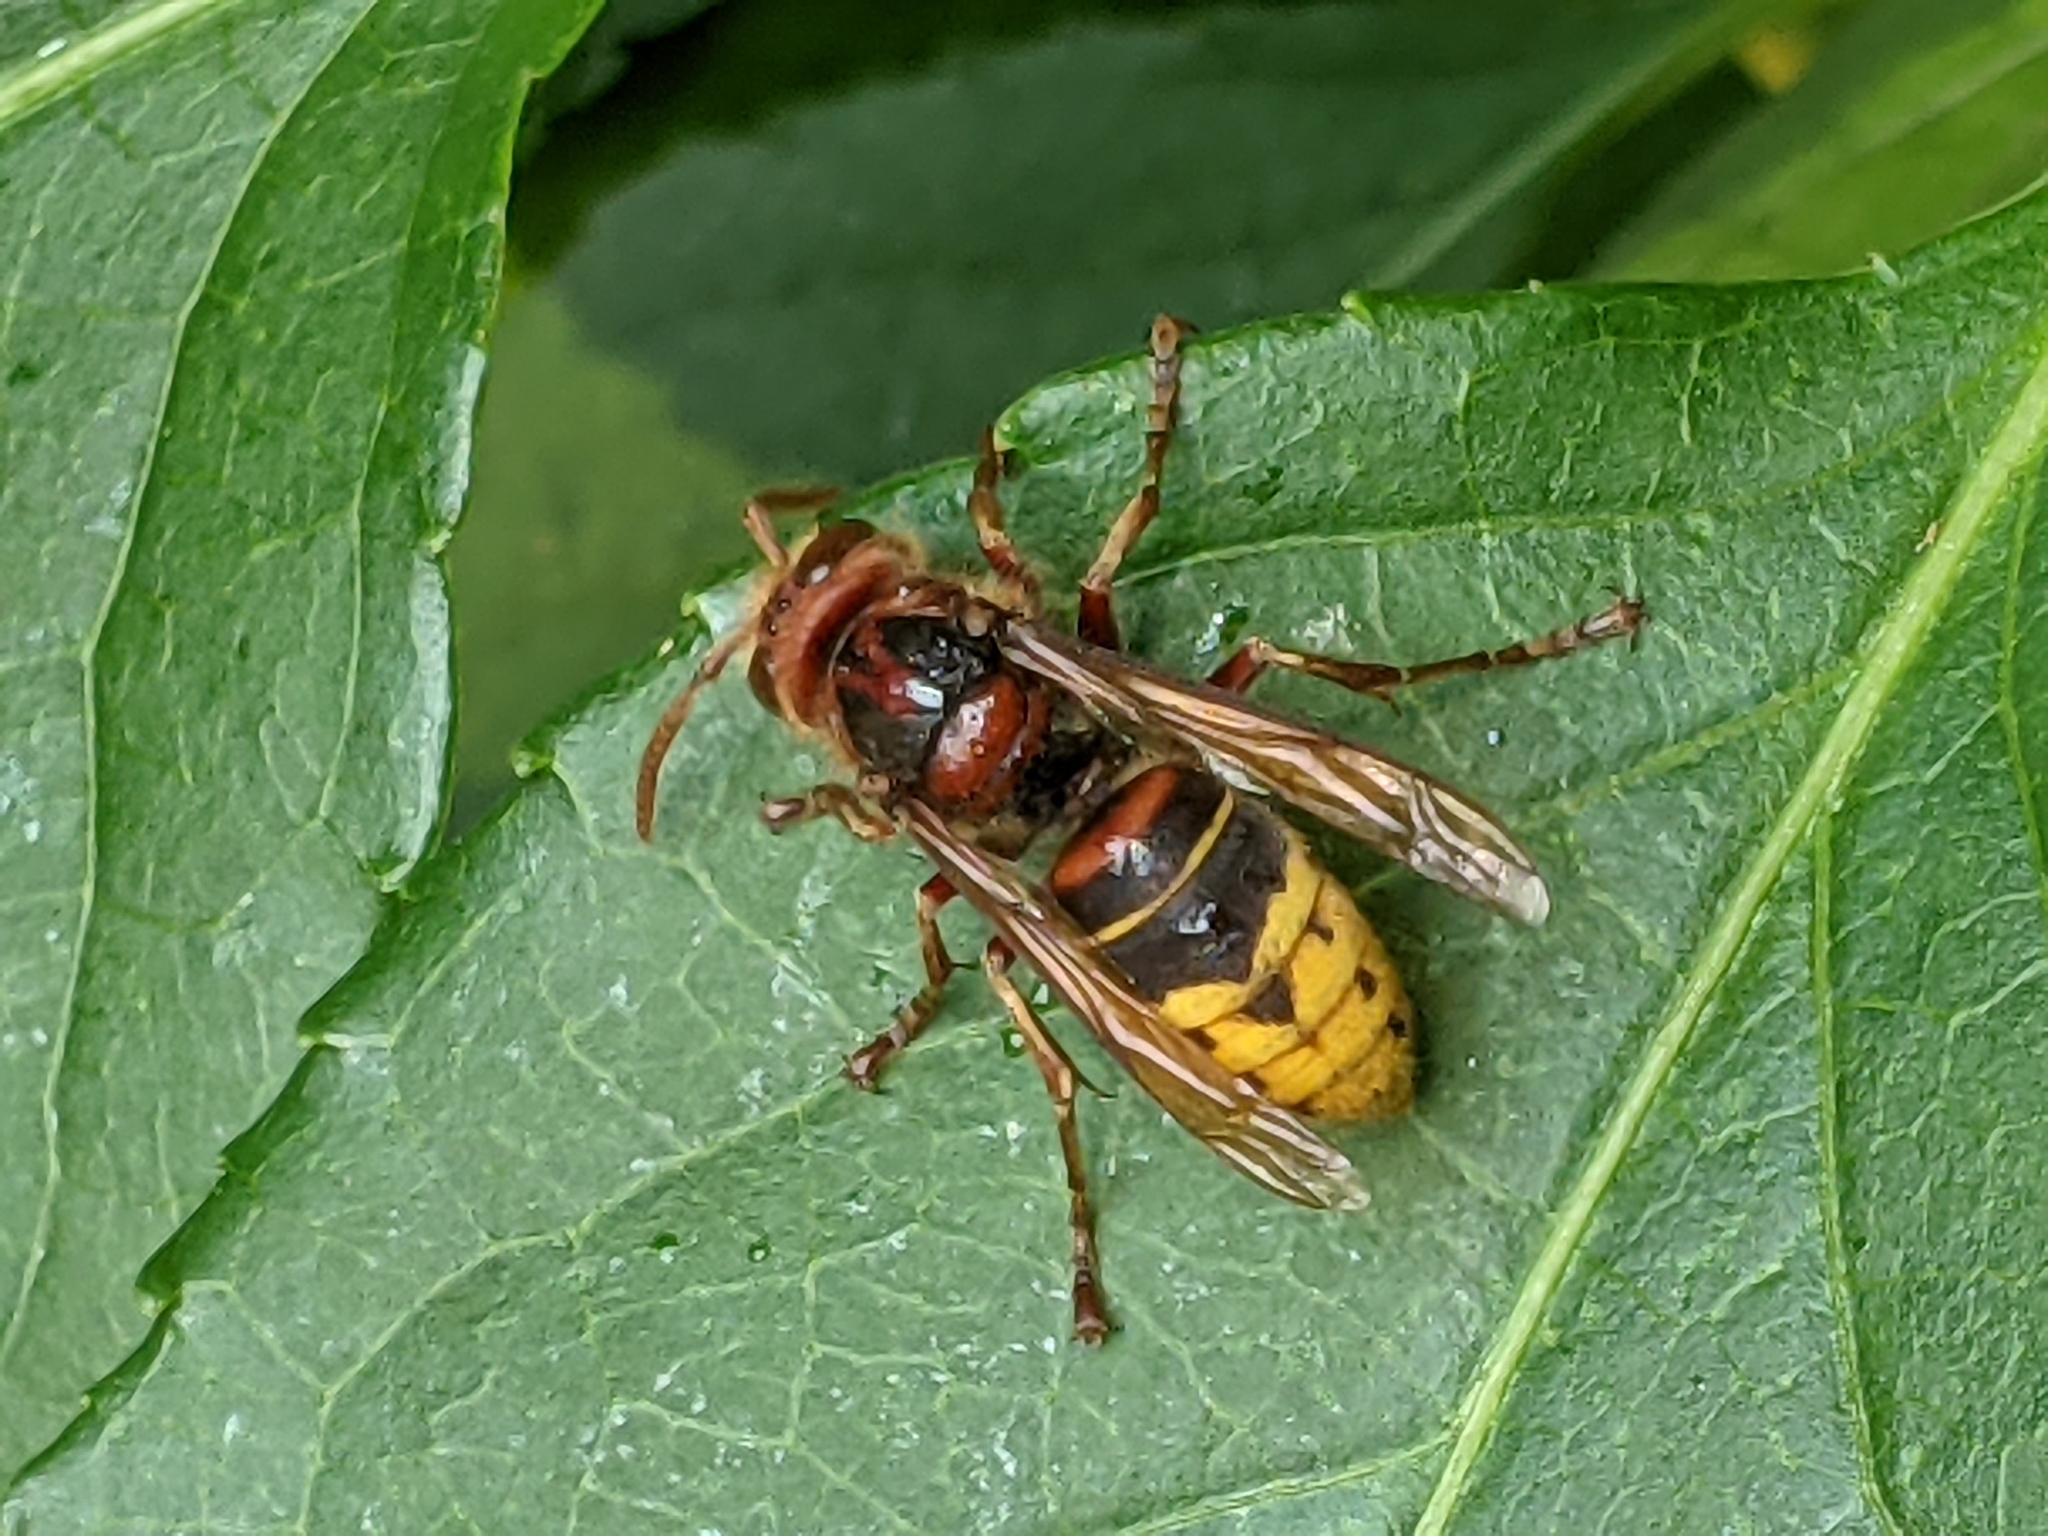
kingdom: Animalia
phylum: Arthropoda
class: Insecta
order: Hymenoptera
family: Vespidae
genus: Vespa
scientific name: Vespa crabro
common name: Hornet
